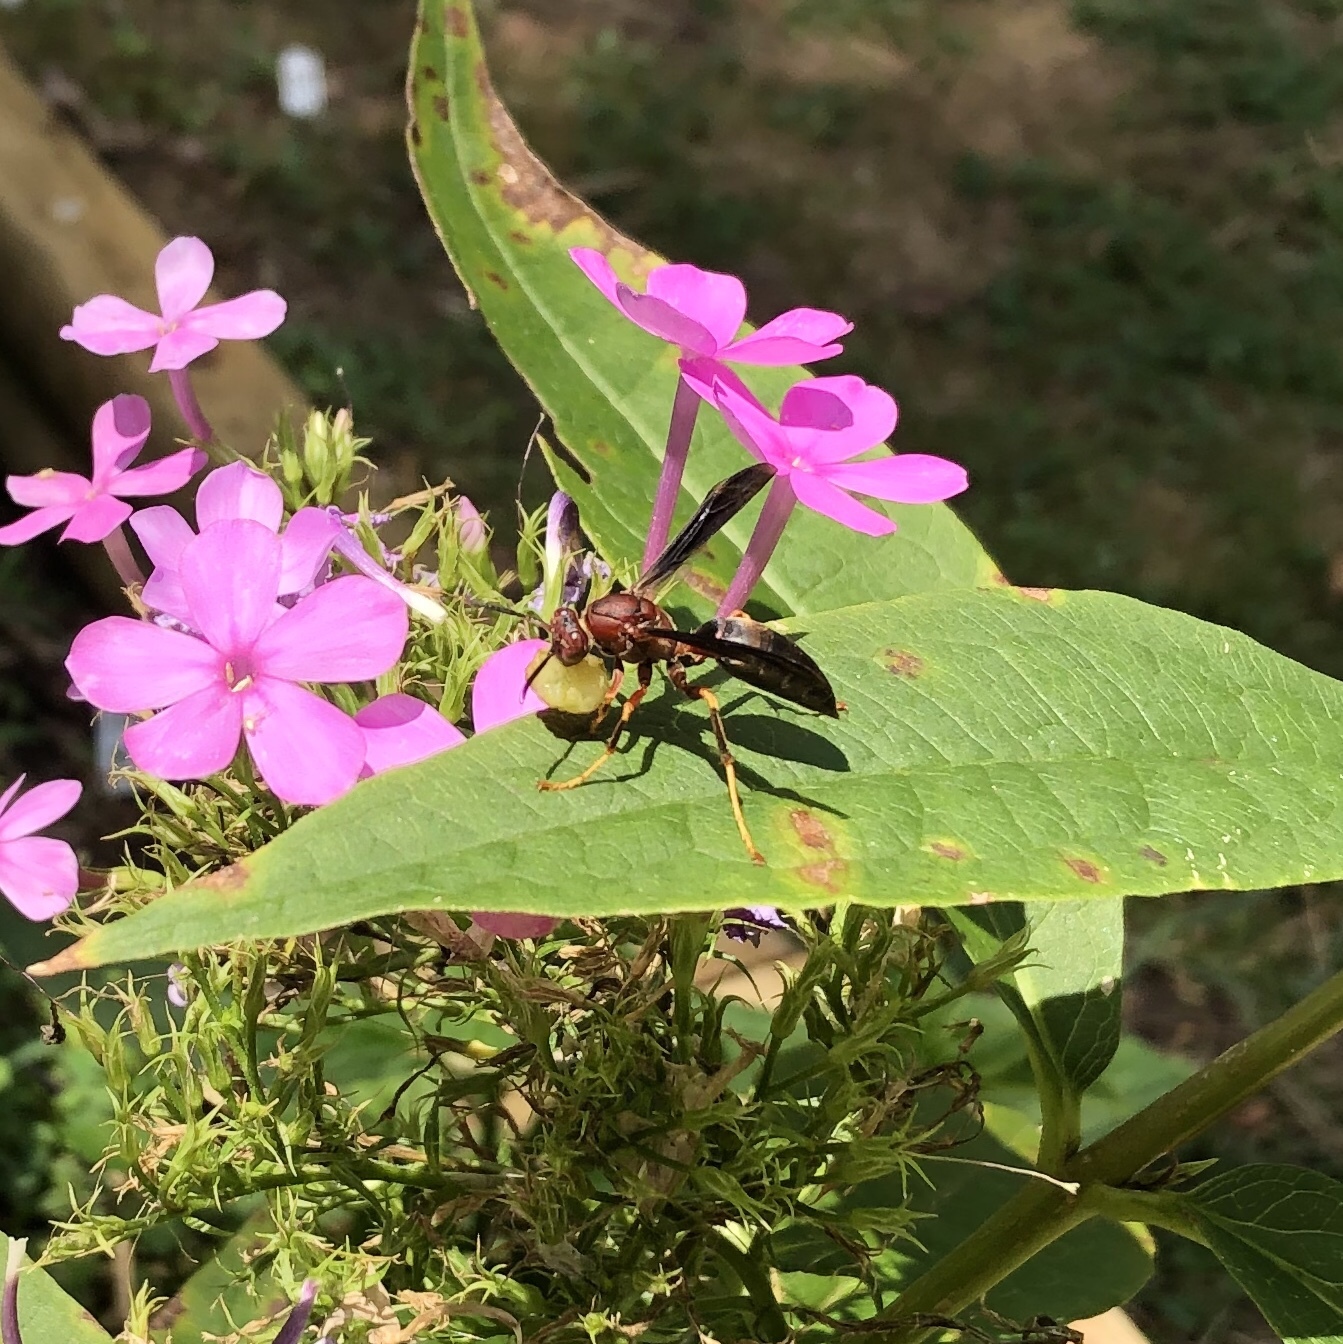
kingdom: Animalia
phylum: Arthropoda
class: Insecta
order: Hymenoptera
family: Eumenidae
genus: Polistes
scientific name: Polistes metricus
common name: Metric paper wasp
